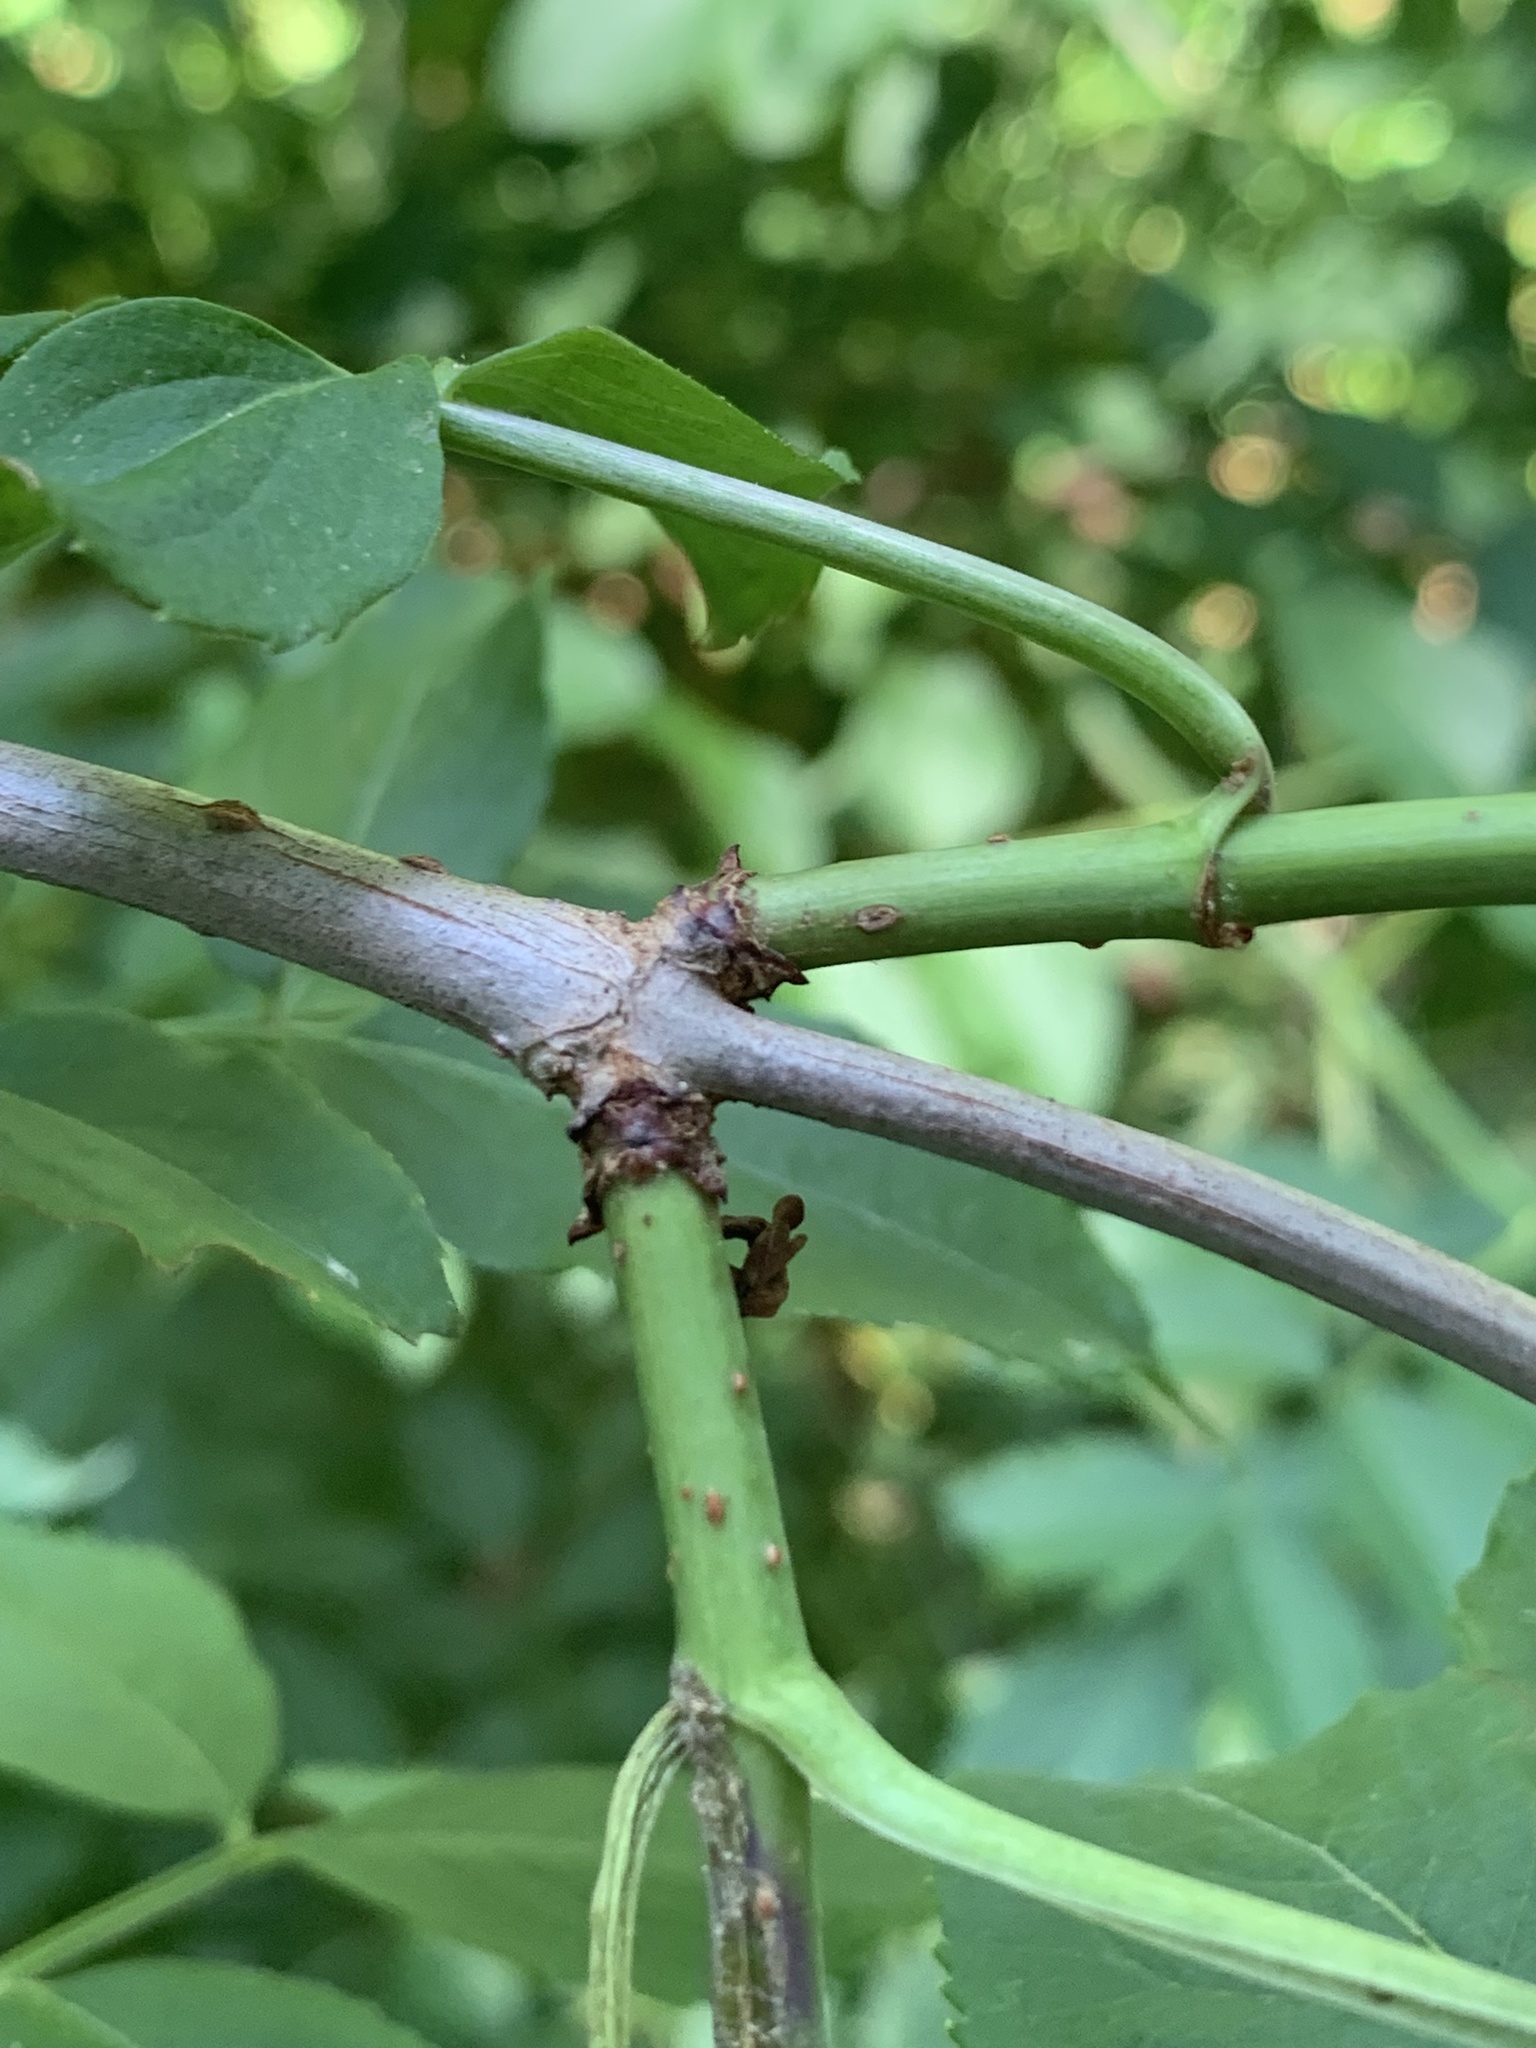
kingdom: Plantae
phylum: Tracheophyta
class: Magnoliopsida
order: Dipsacales
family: Viburnaceae
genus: Sambucus
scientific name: Sambucus canadensis
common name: American elder
